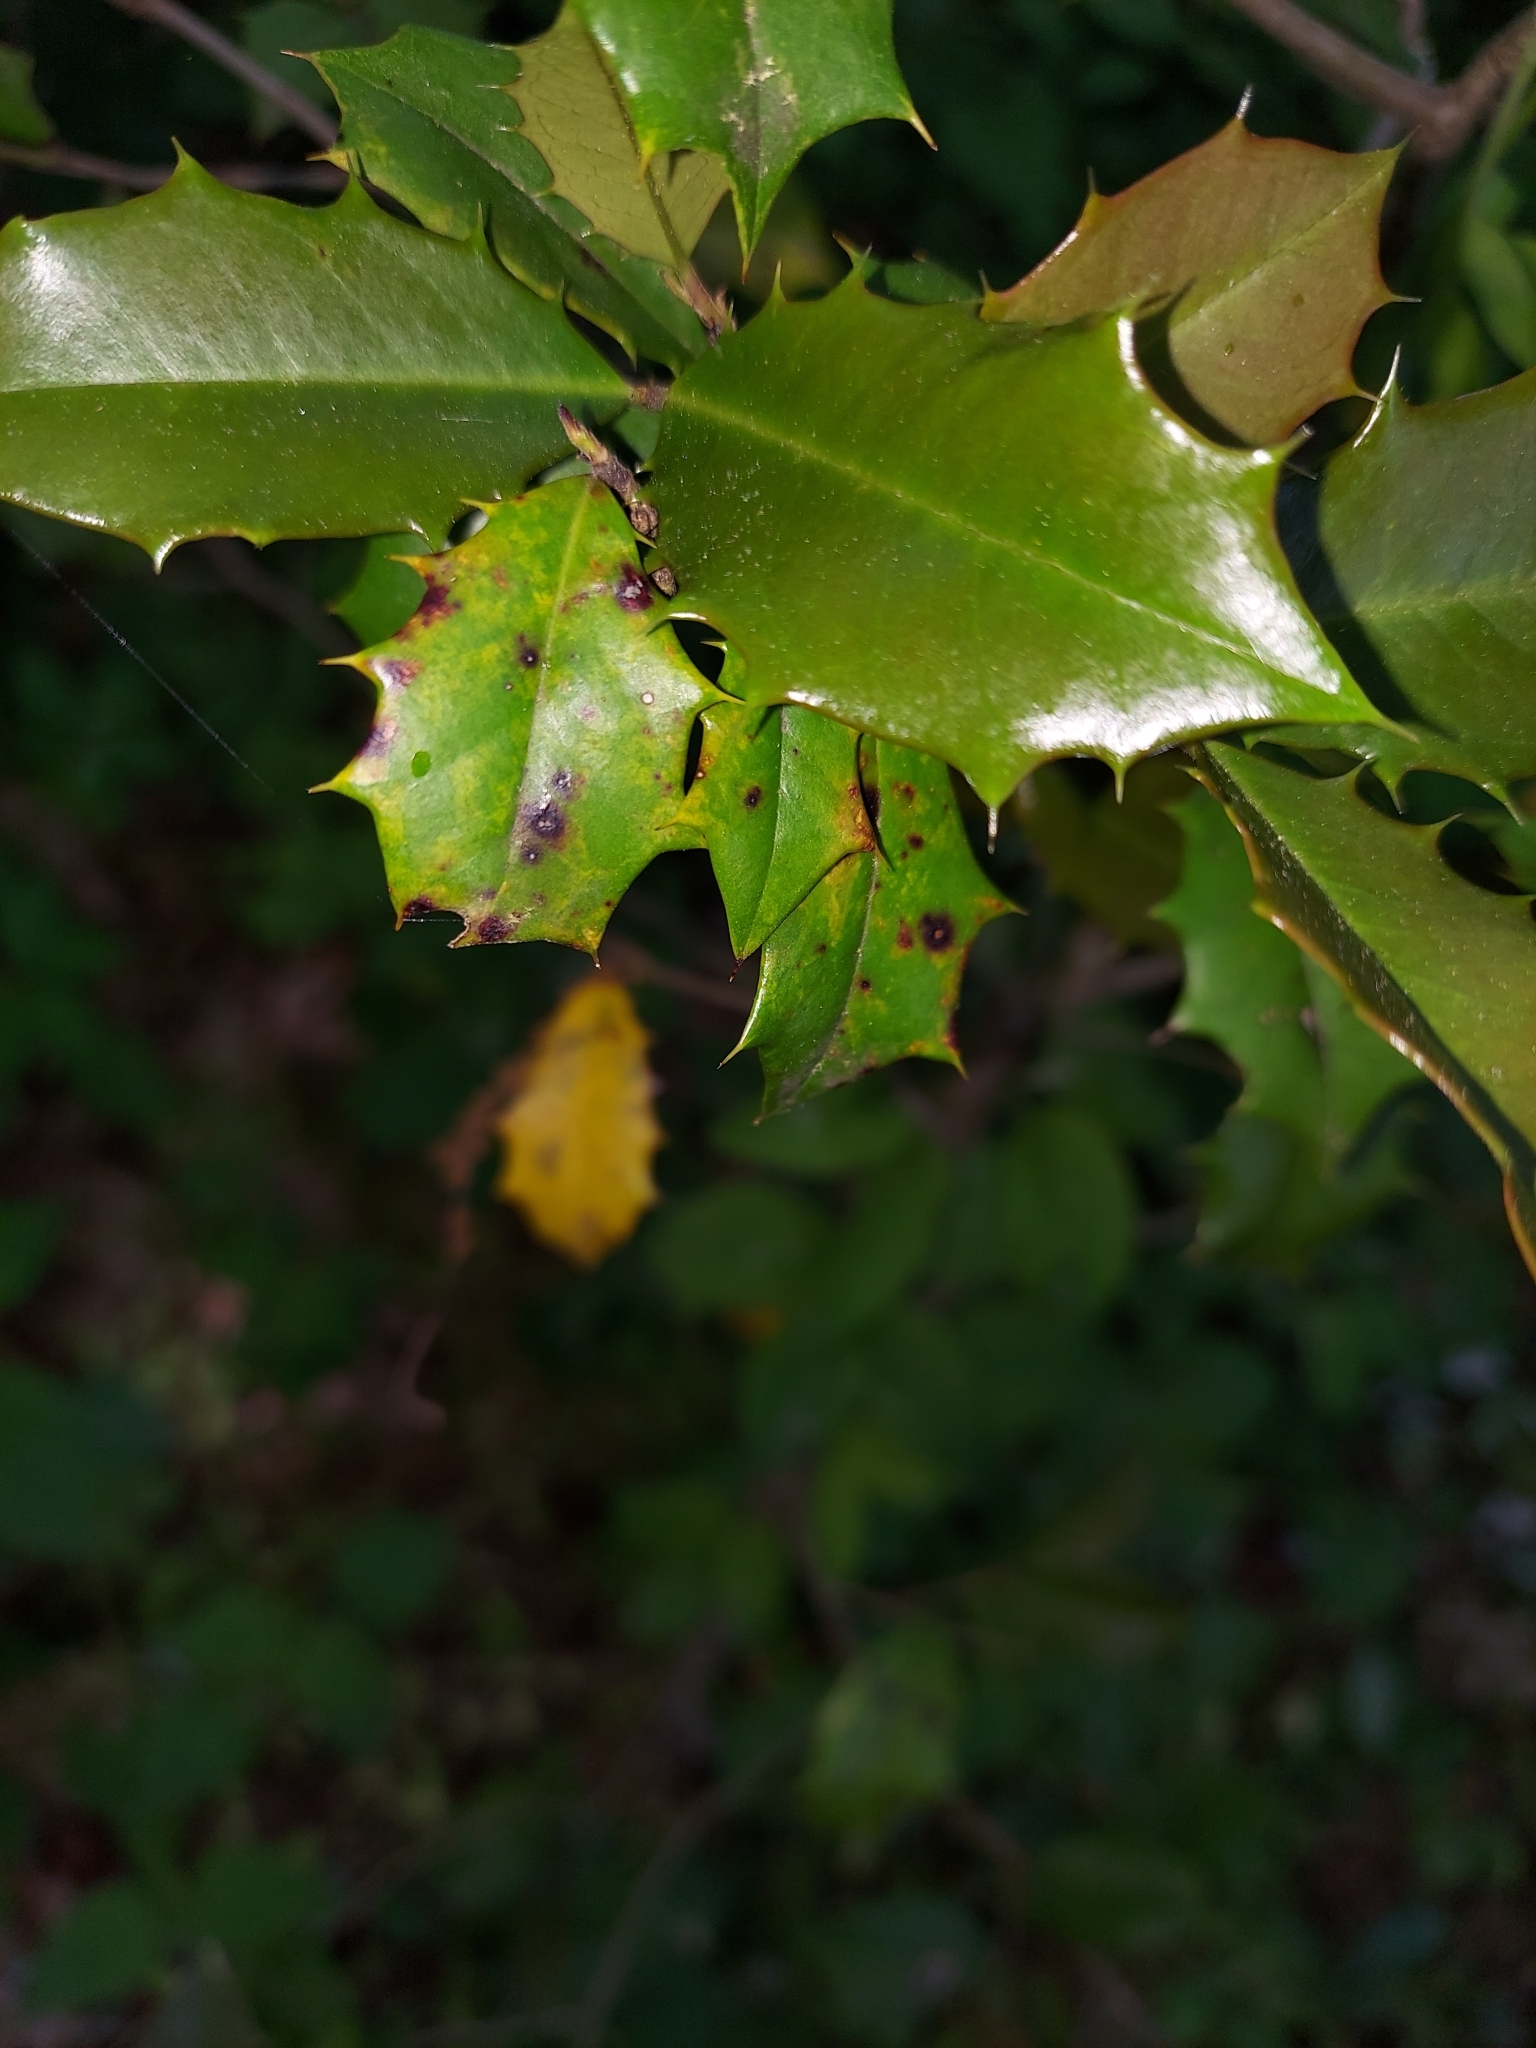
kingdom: Plantae
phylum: Tracheophyta
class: Magnoliopsida
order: Aquifoliales
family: Aquifoliaceae
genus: Ilex
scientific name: Ilex opaca
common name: American holly
